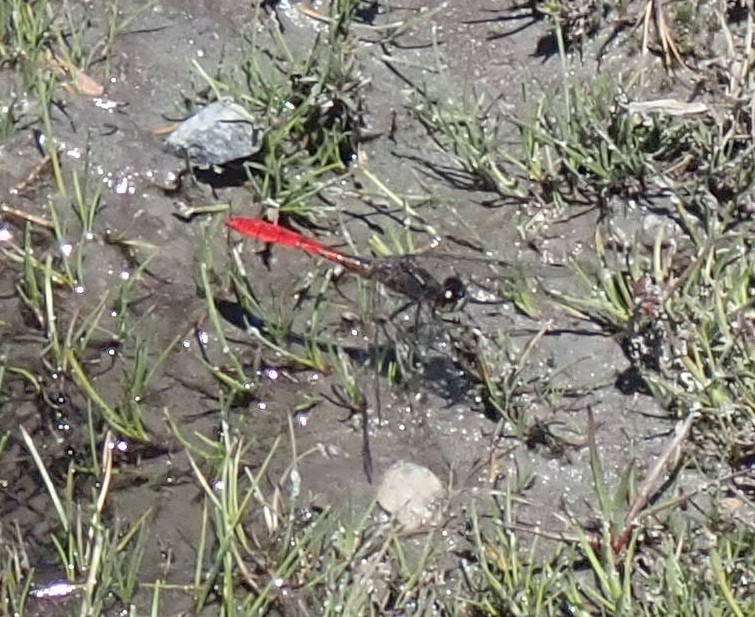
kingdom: Animalia
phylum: Arthropoda
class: Insecta
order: Odonata
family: Libellulidae
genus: Nannophya
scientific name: Nannophya dalei
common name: Eastern pygmyfly
